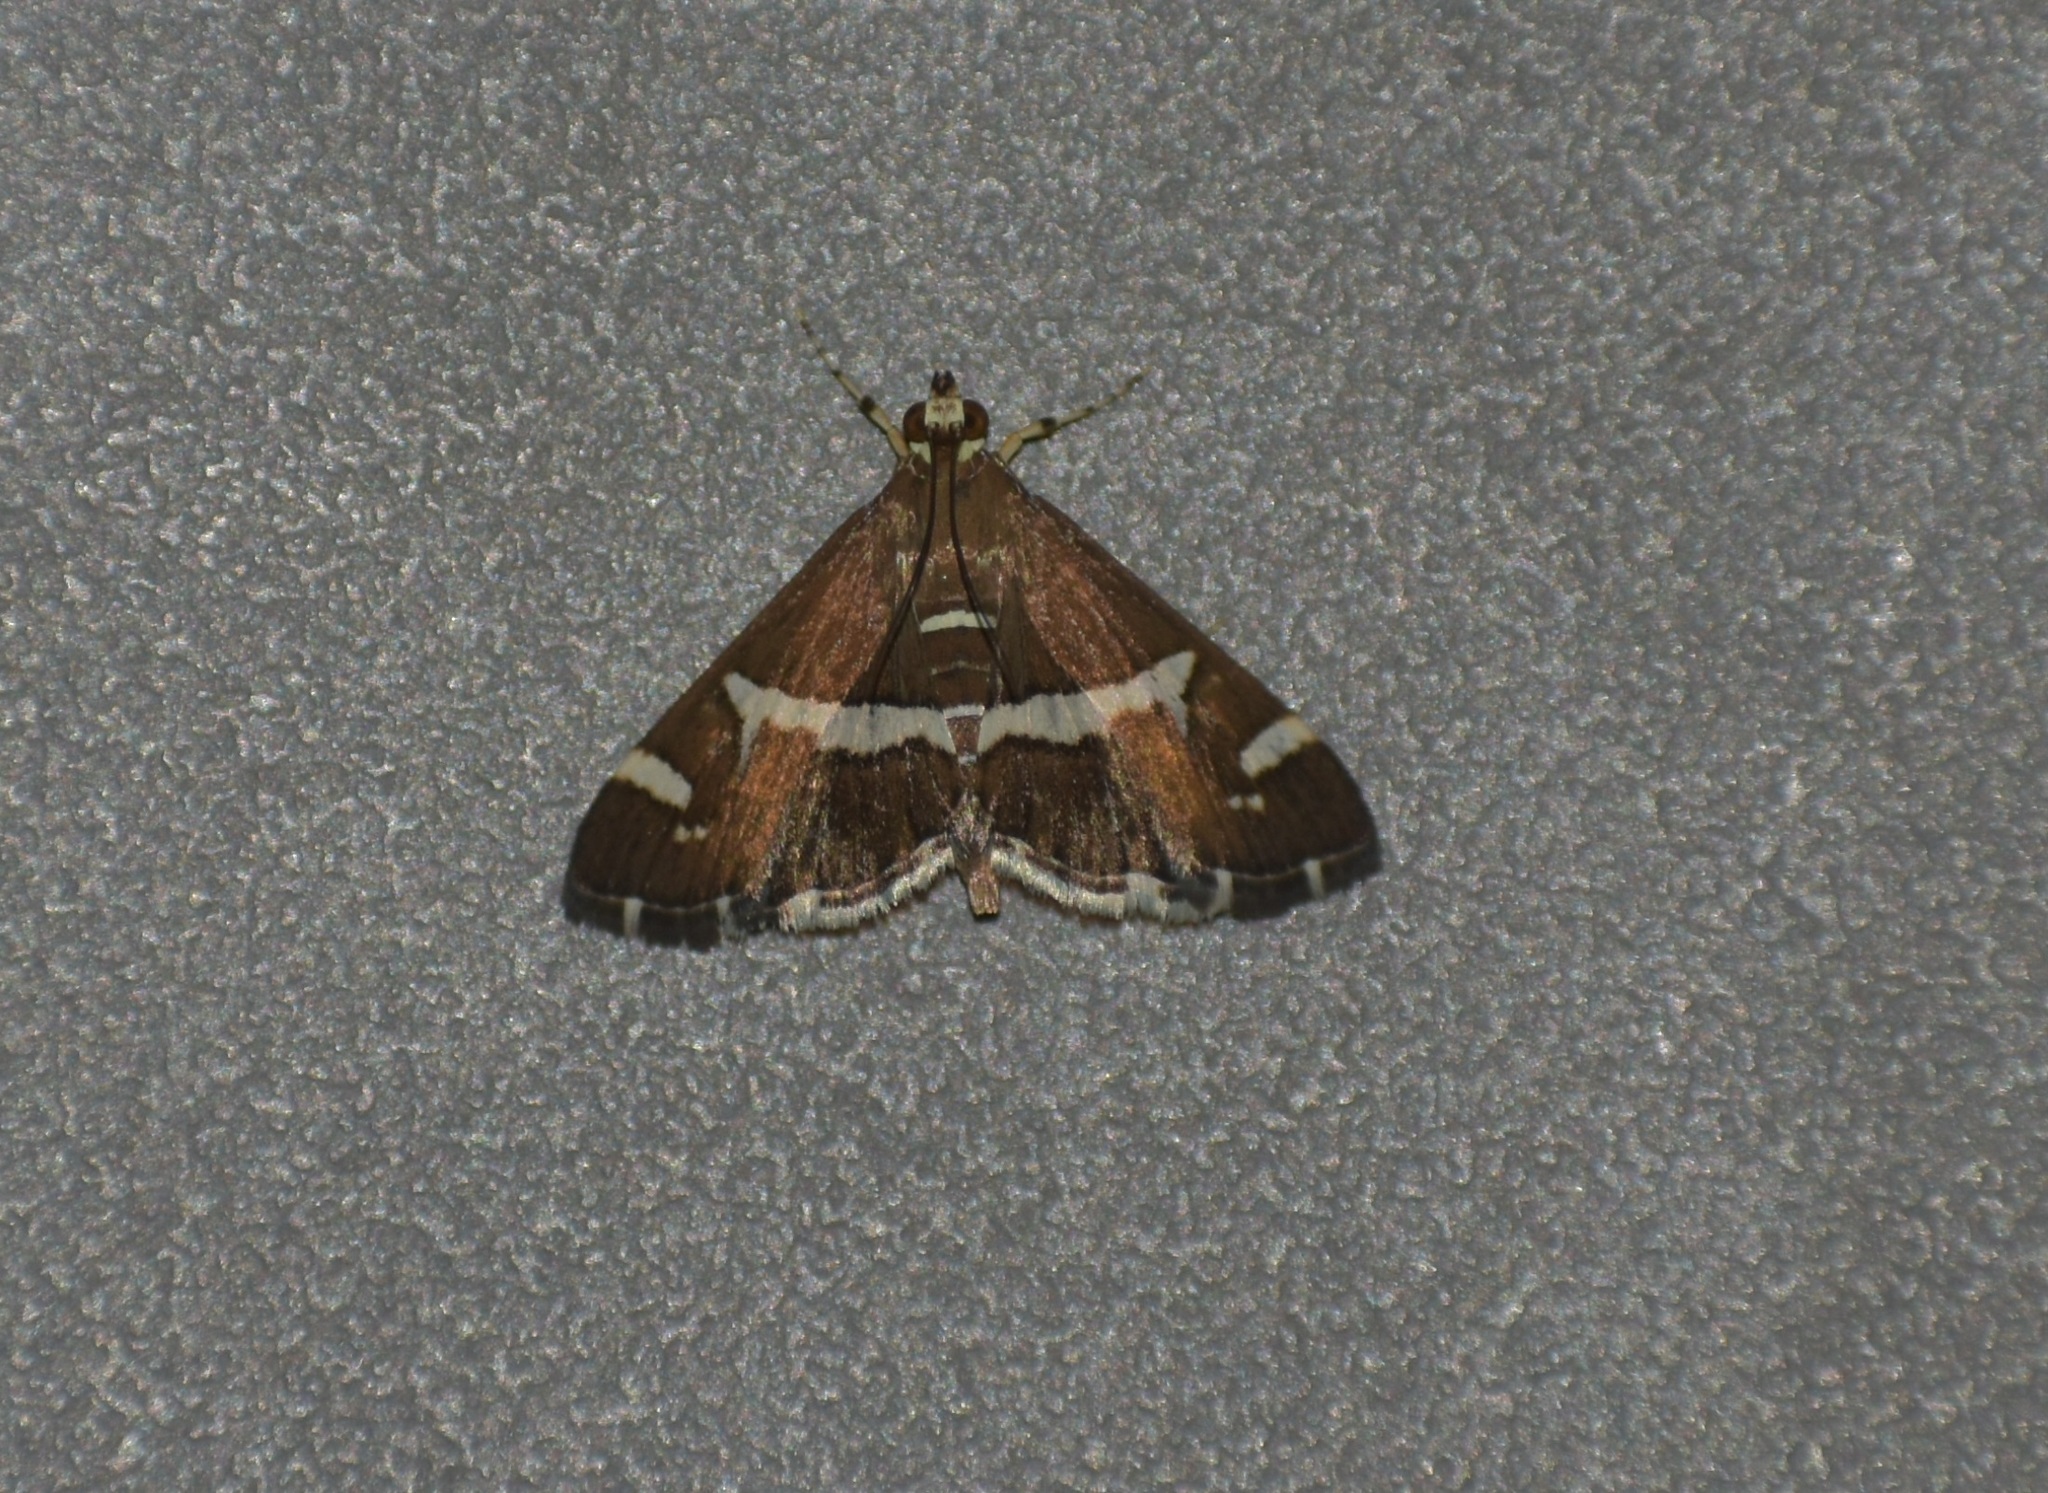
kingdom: Animalia
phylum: Arthropoda
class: Insecta
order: Lepidoptera
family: Crambidae
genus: Spoladea
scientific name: Spoladea recurvalis
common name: Beet webworm moth
